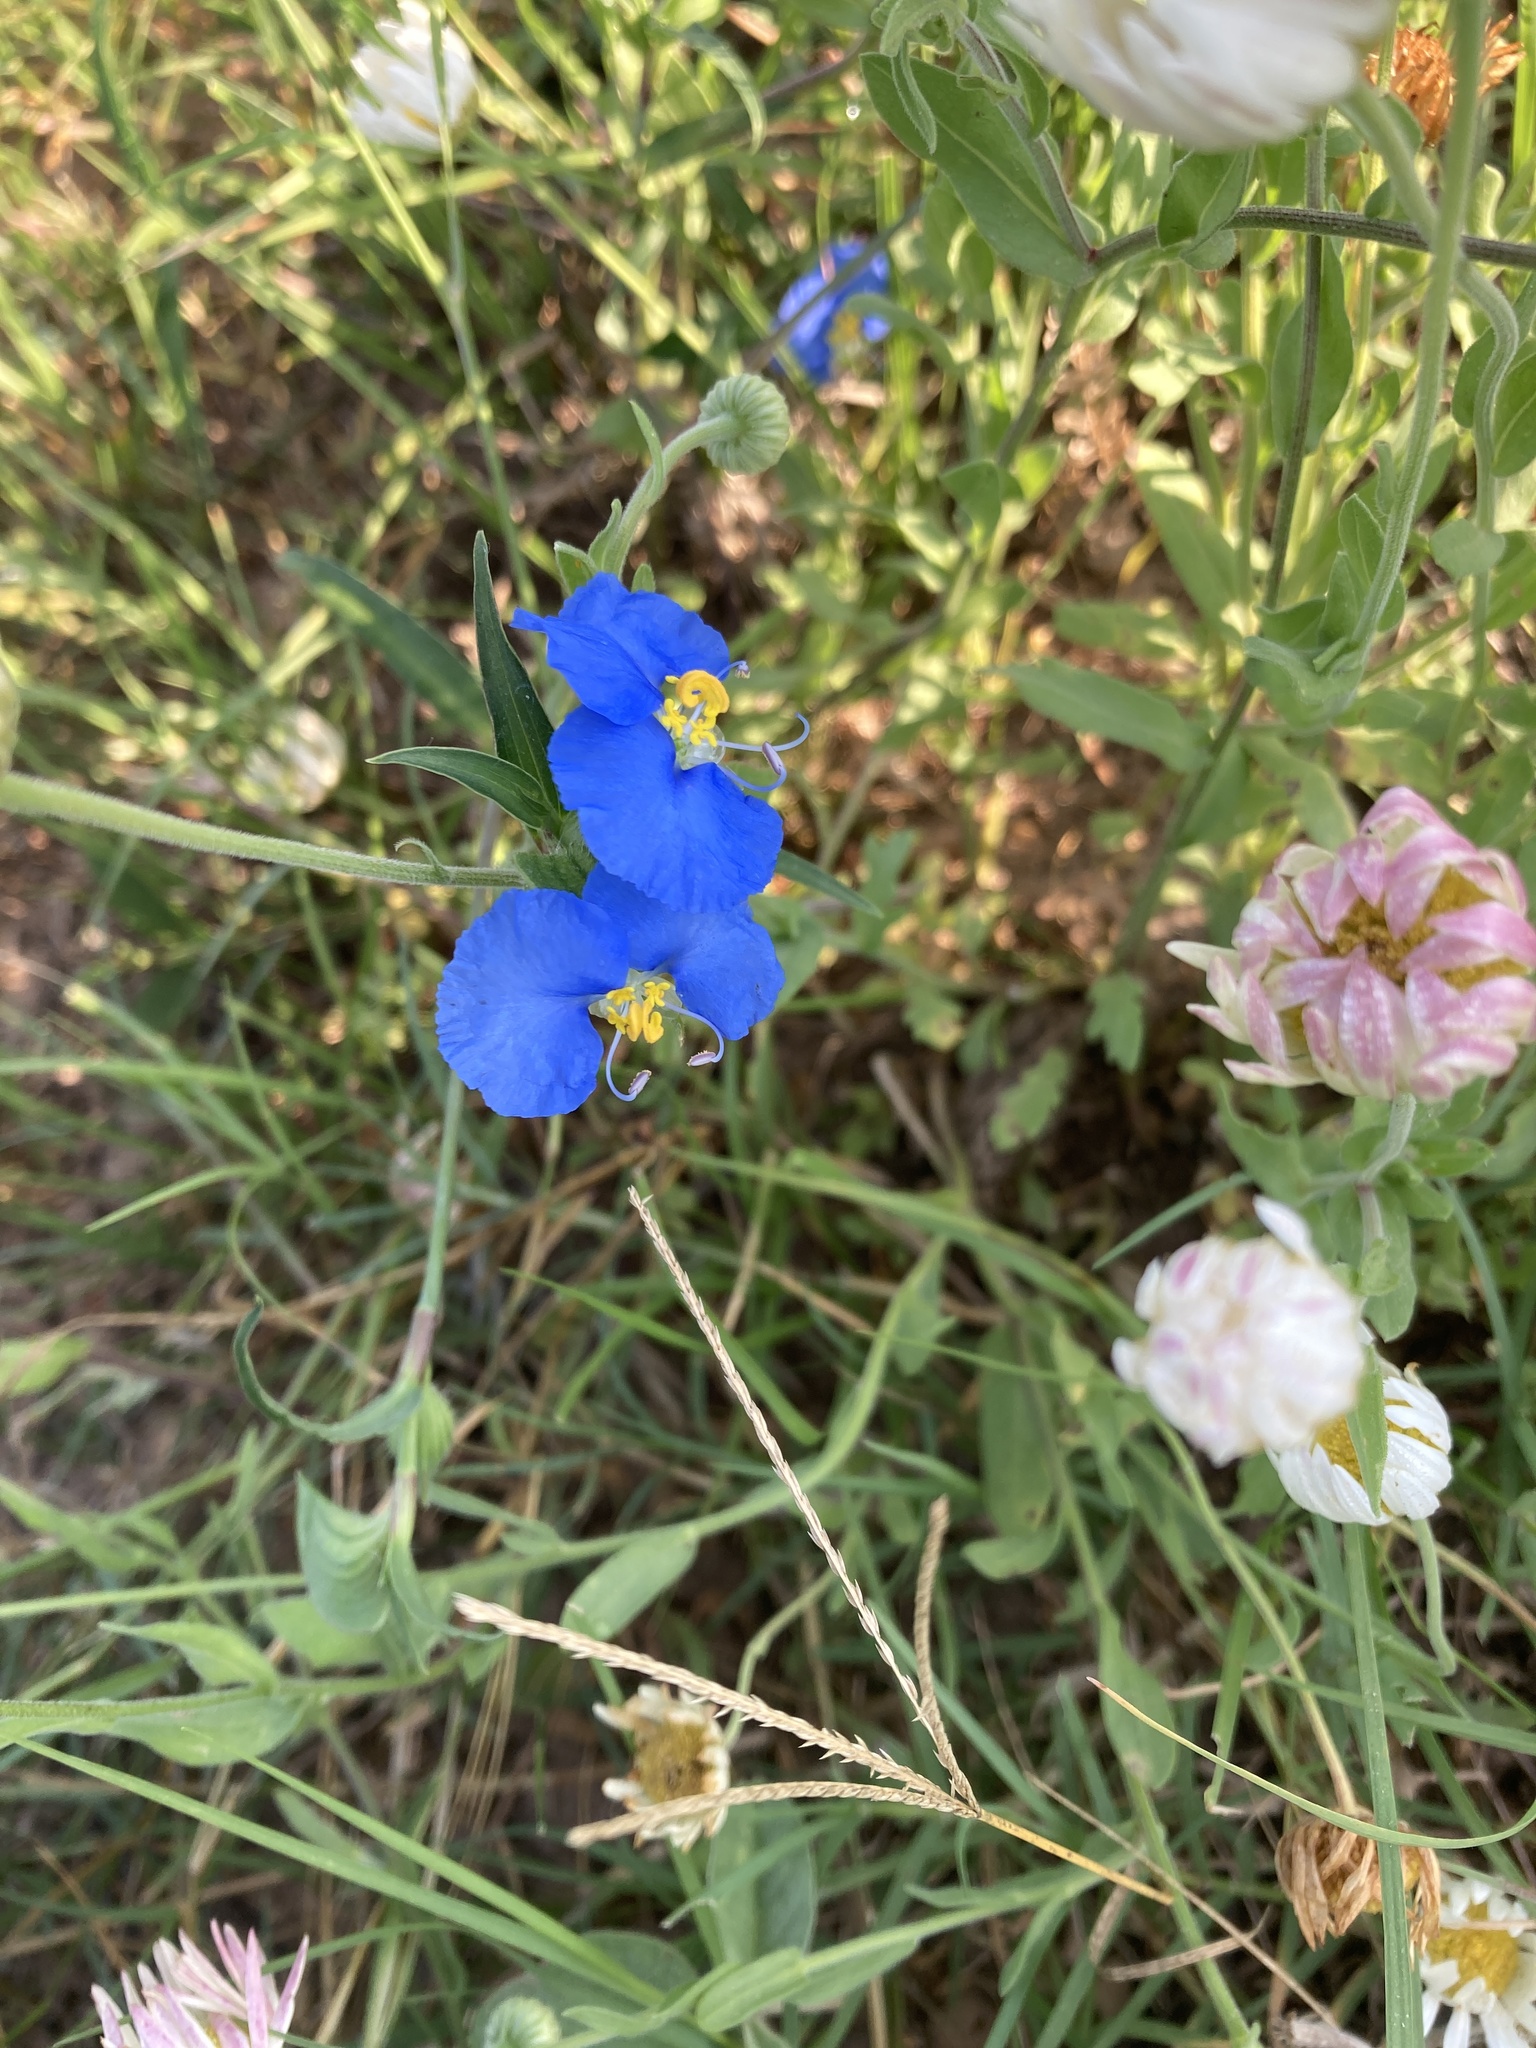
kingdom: Plantae
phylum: Tracheophyta
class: Liliopsida
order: Commelinales
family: Commelinaceae
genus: Commelina
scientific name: Commelina erecta
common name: Blousel blommetjie
